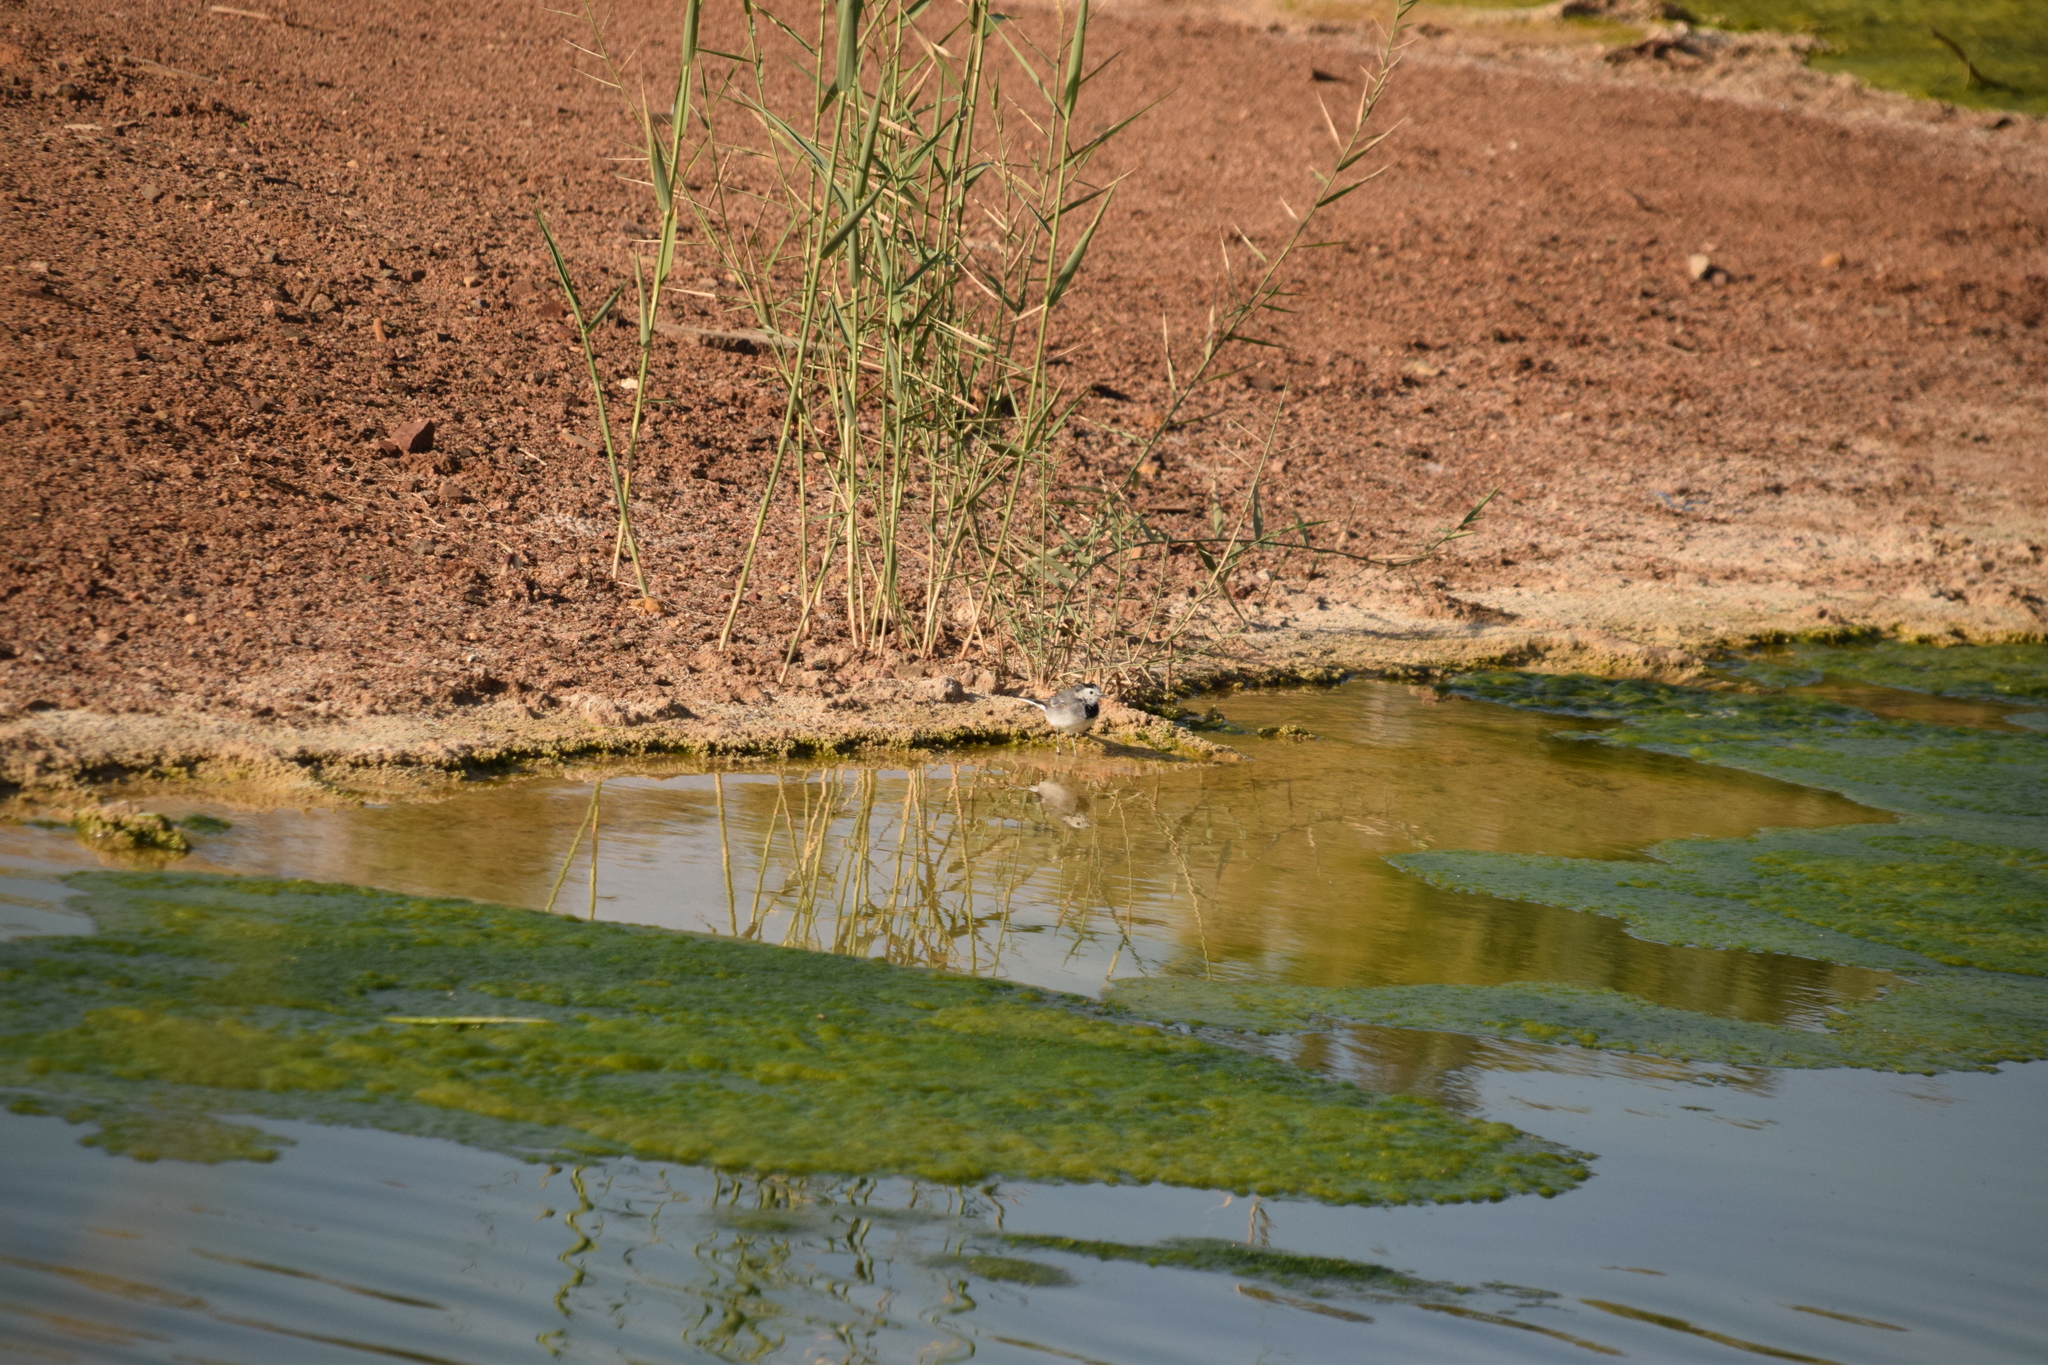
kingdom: Animalia
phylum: Chordata
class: Aves
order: Passeriformes
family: Motacillidae
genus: Motacilla
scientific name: Motacilla alba
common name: White wagtail
